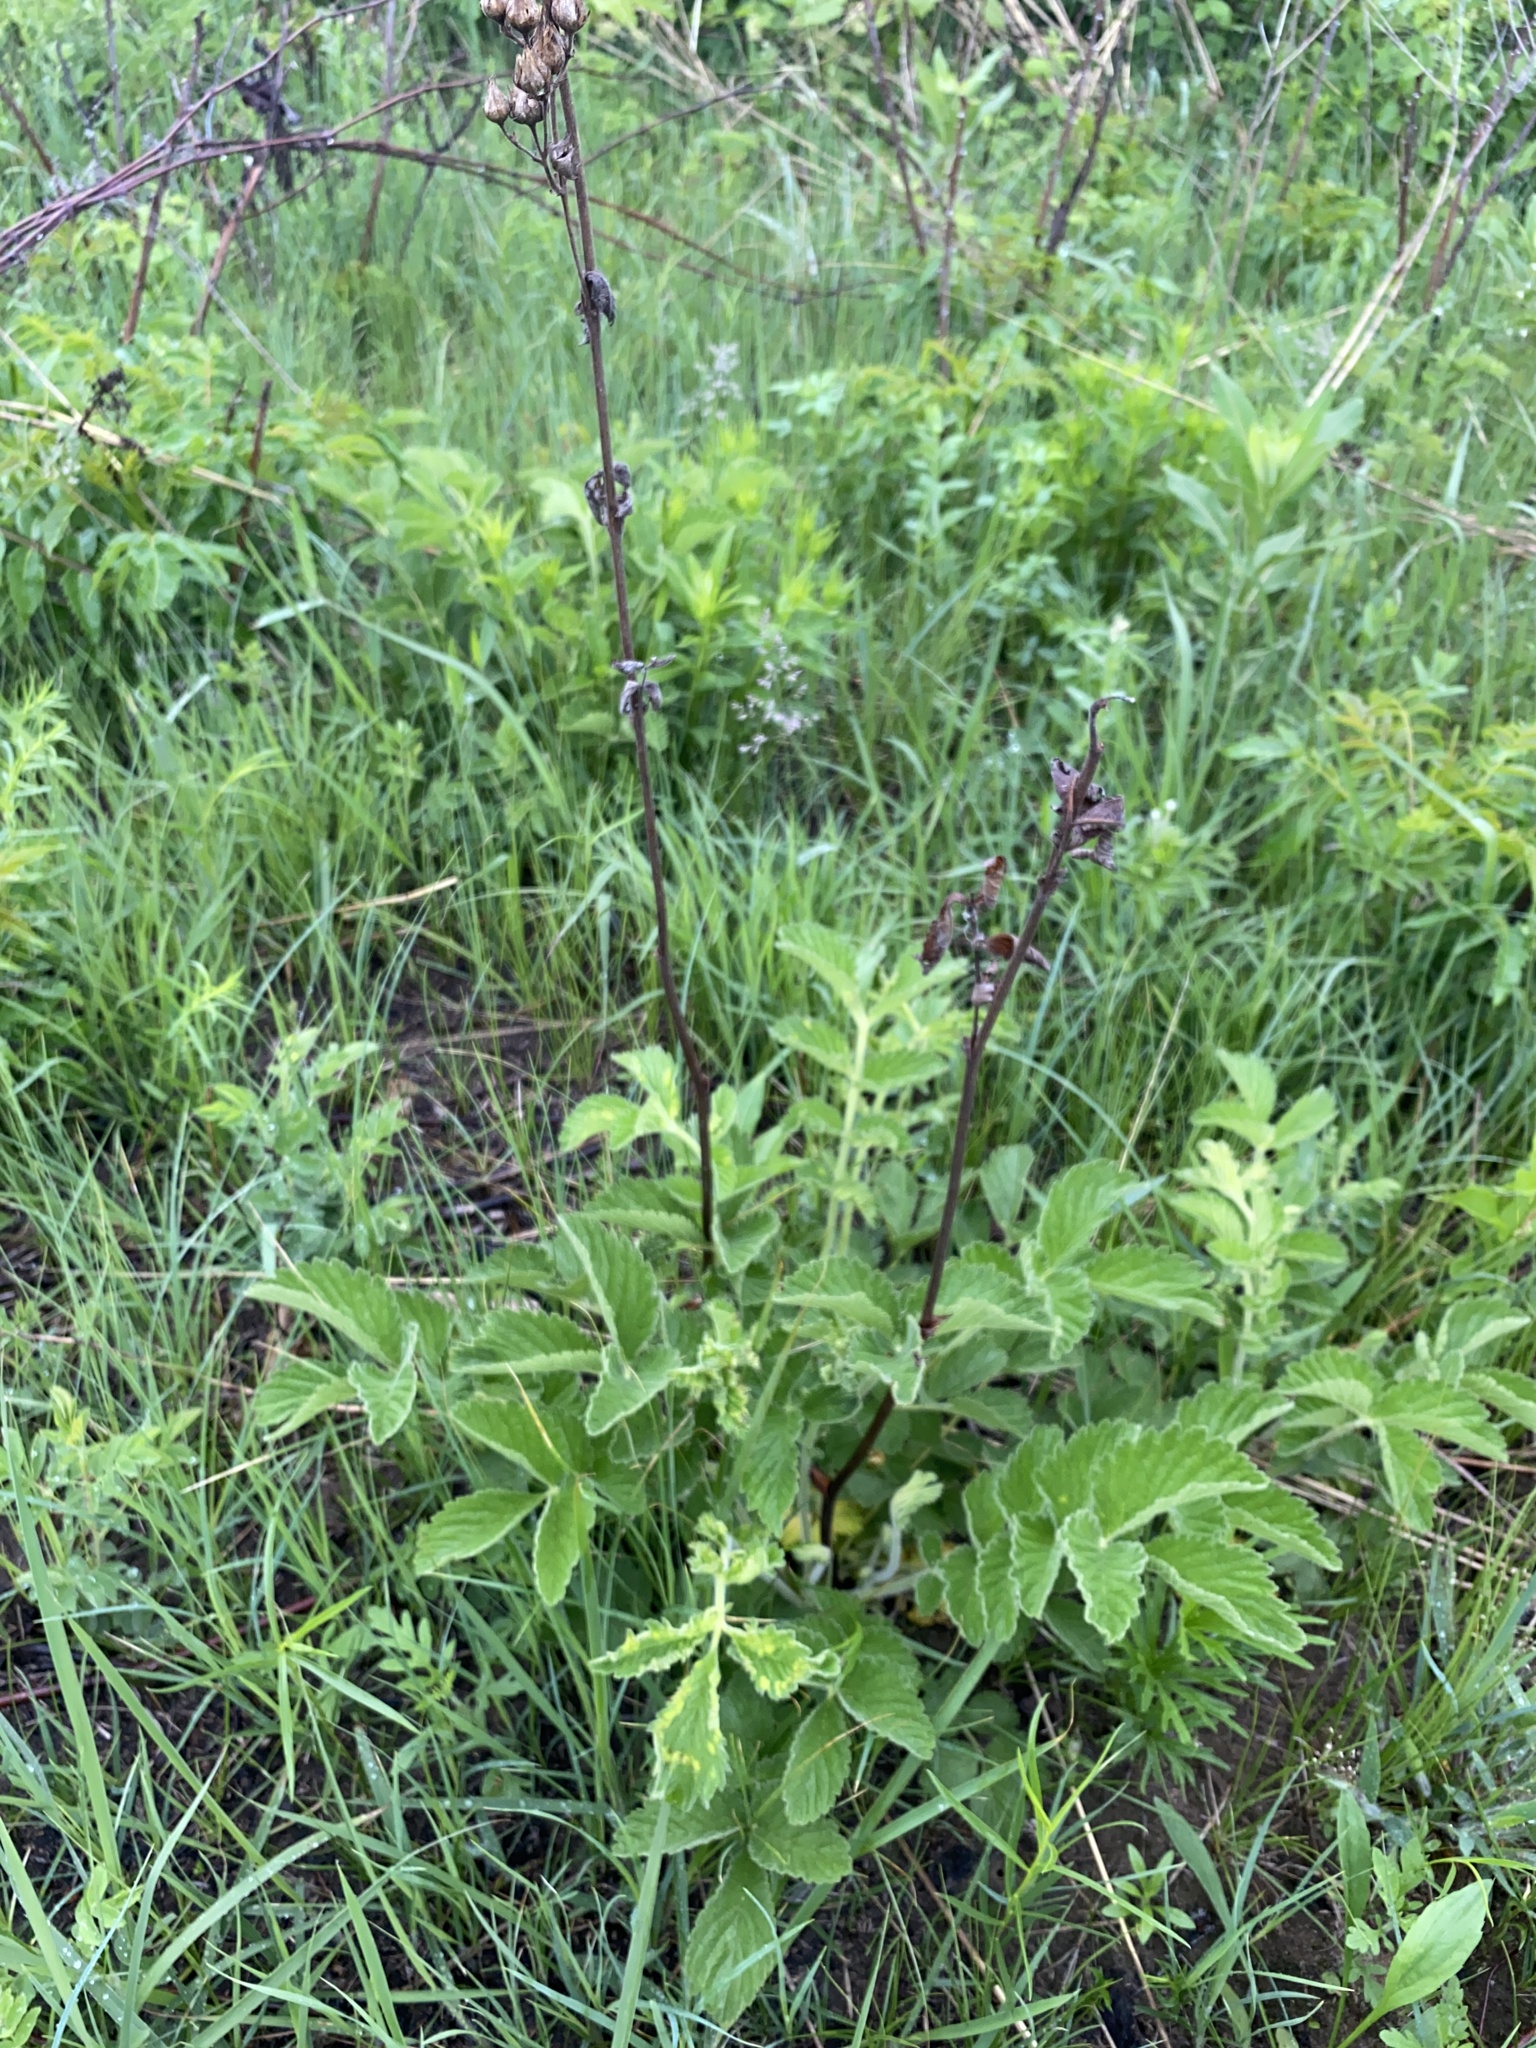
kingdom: Plantae
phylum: Tracheophyta
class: Magnoliopsida
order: Rosales
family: Rosaceae
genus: Drymocallis
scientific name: Drymocallis arguta
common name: Tall cinquefoil
